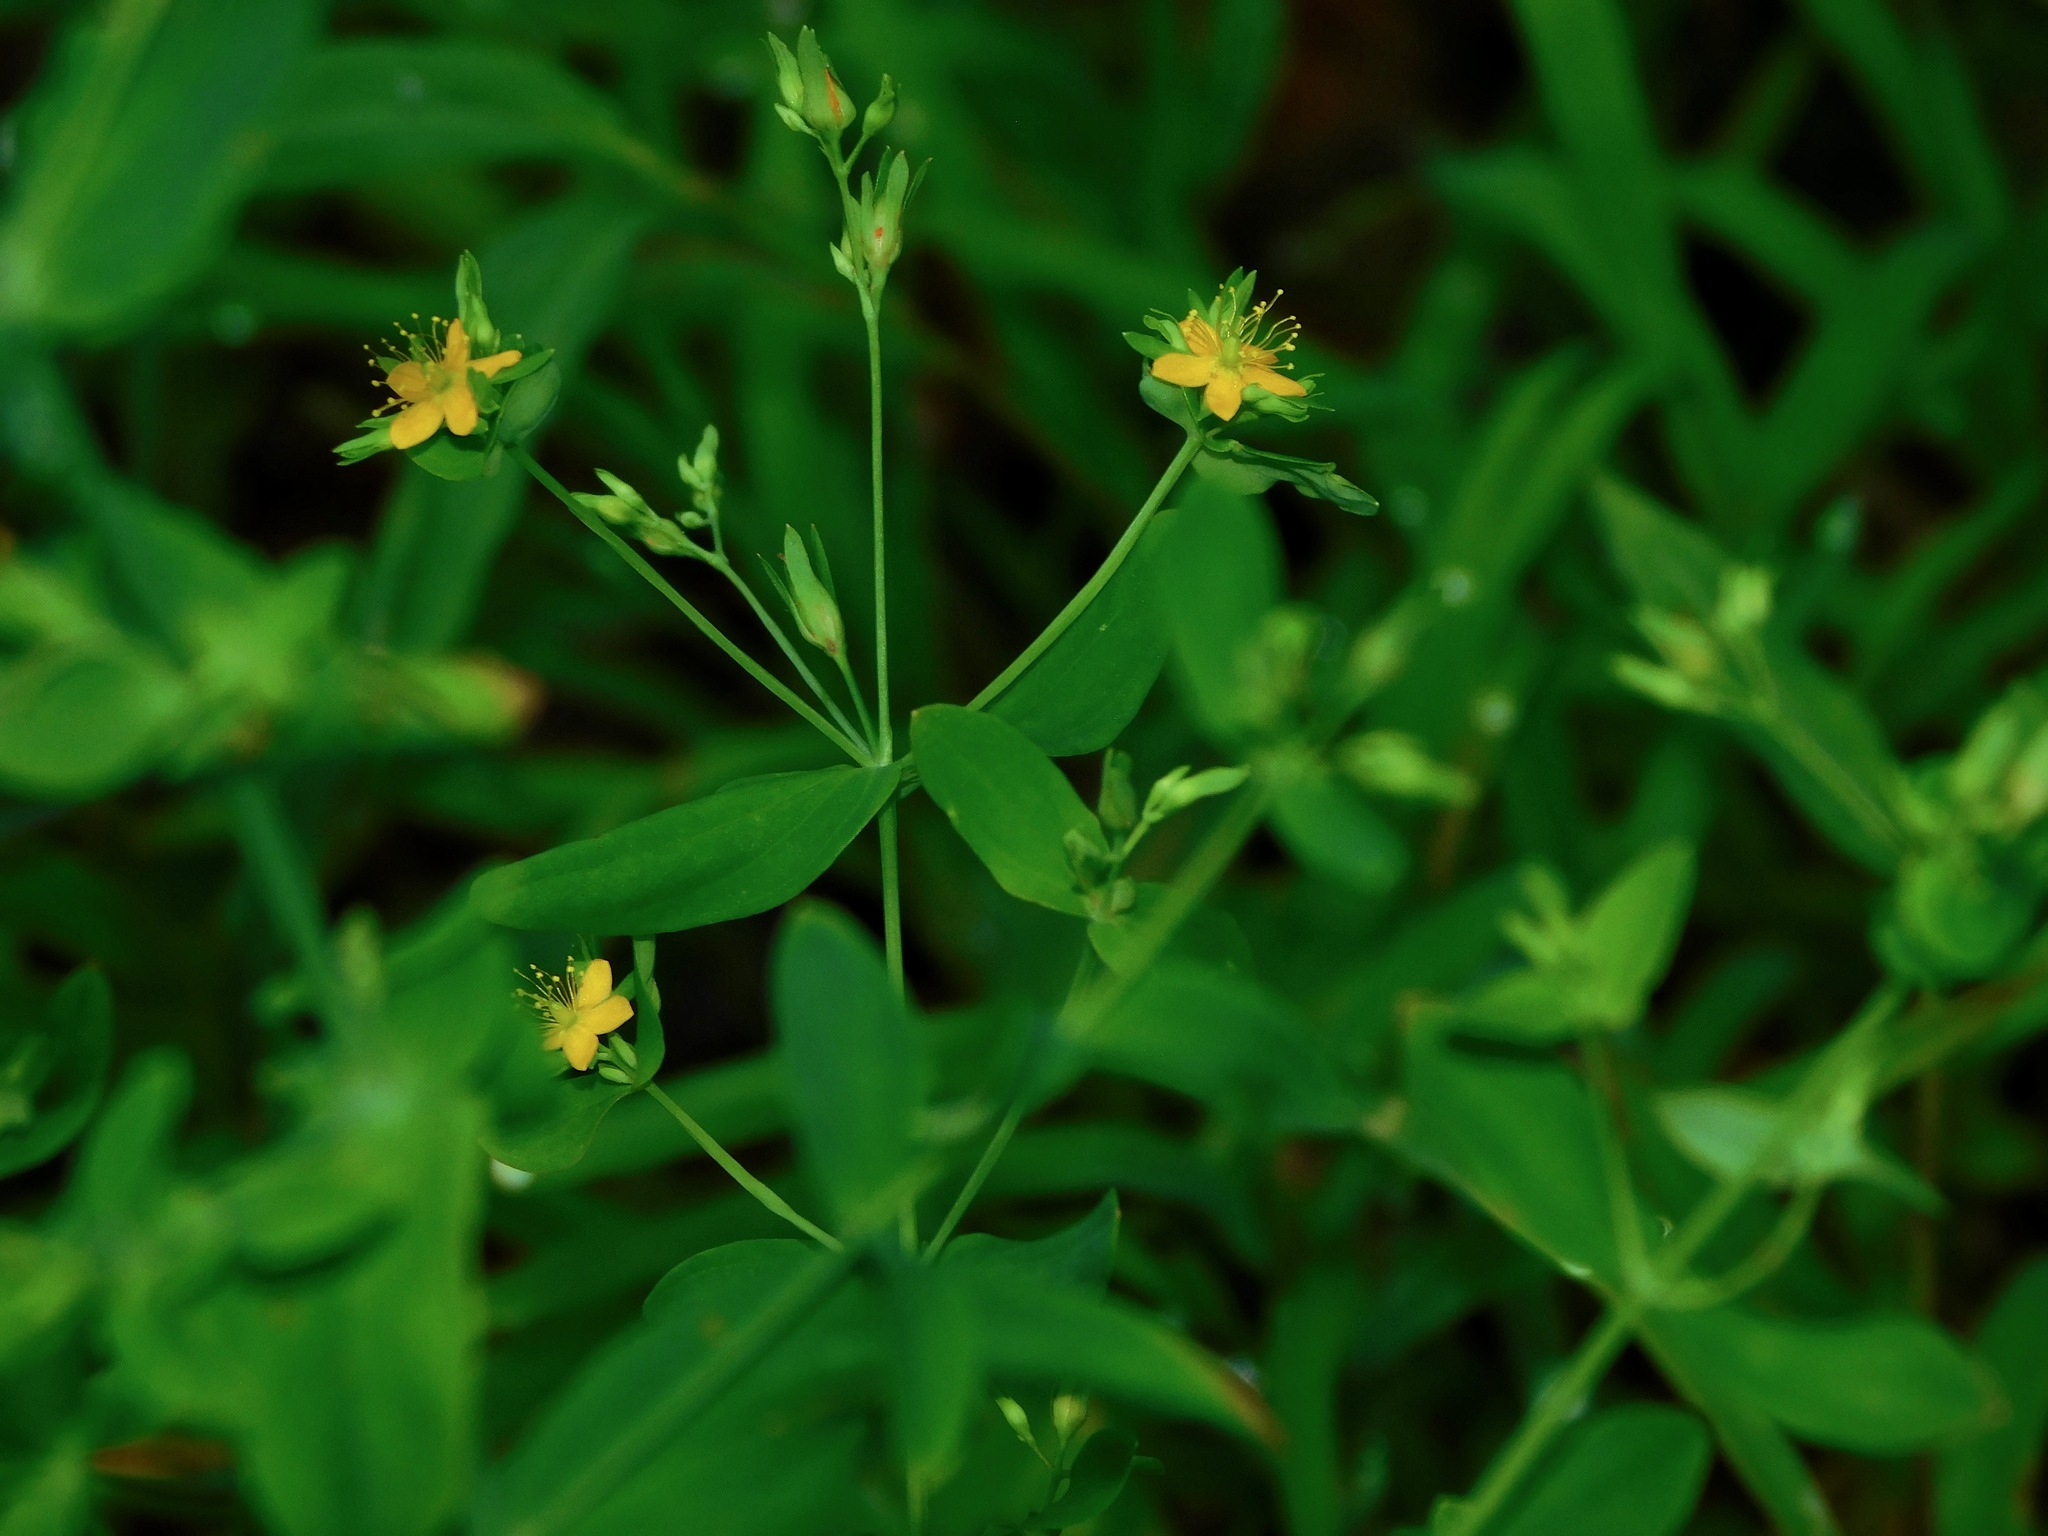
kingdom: Plantae
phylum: Tracheophyta
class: Magnoliopsida
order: Malpighiales
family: Hypericaceae
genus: Hypericum
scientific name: Hypericum mutilum
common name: Dwarf st. john's-wort
